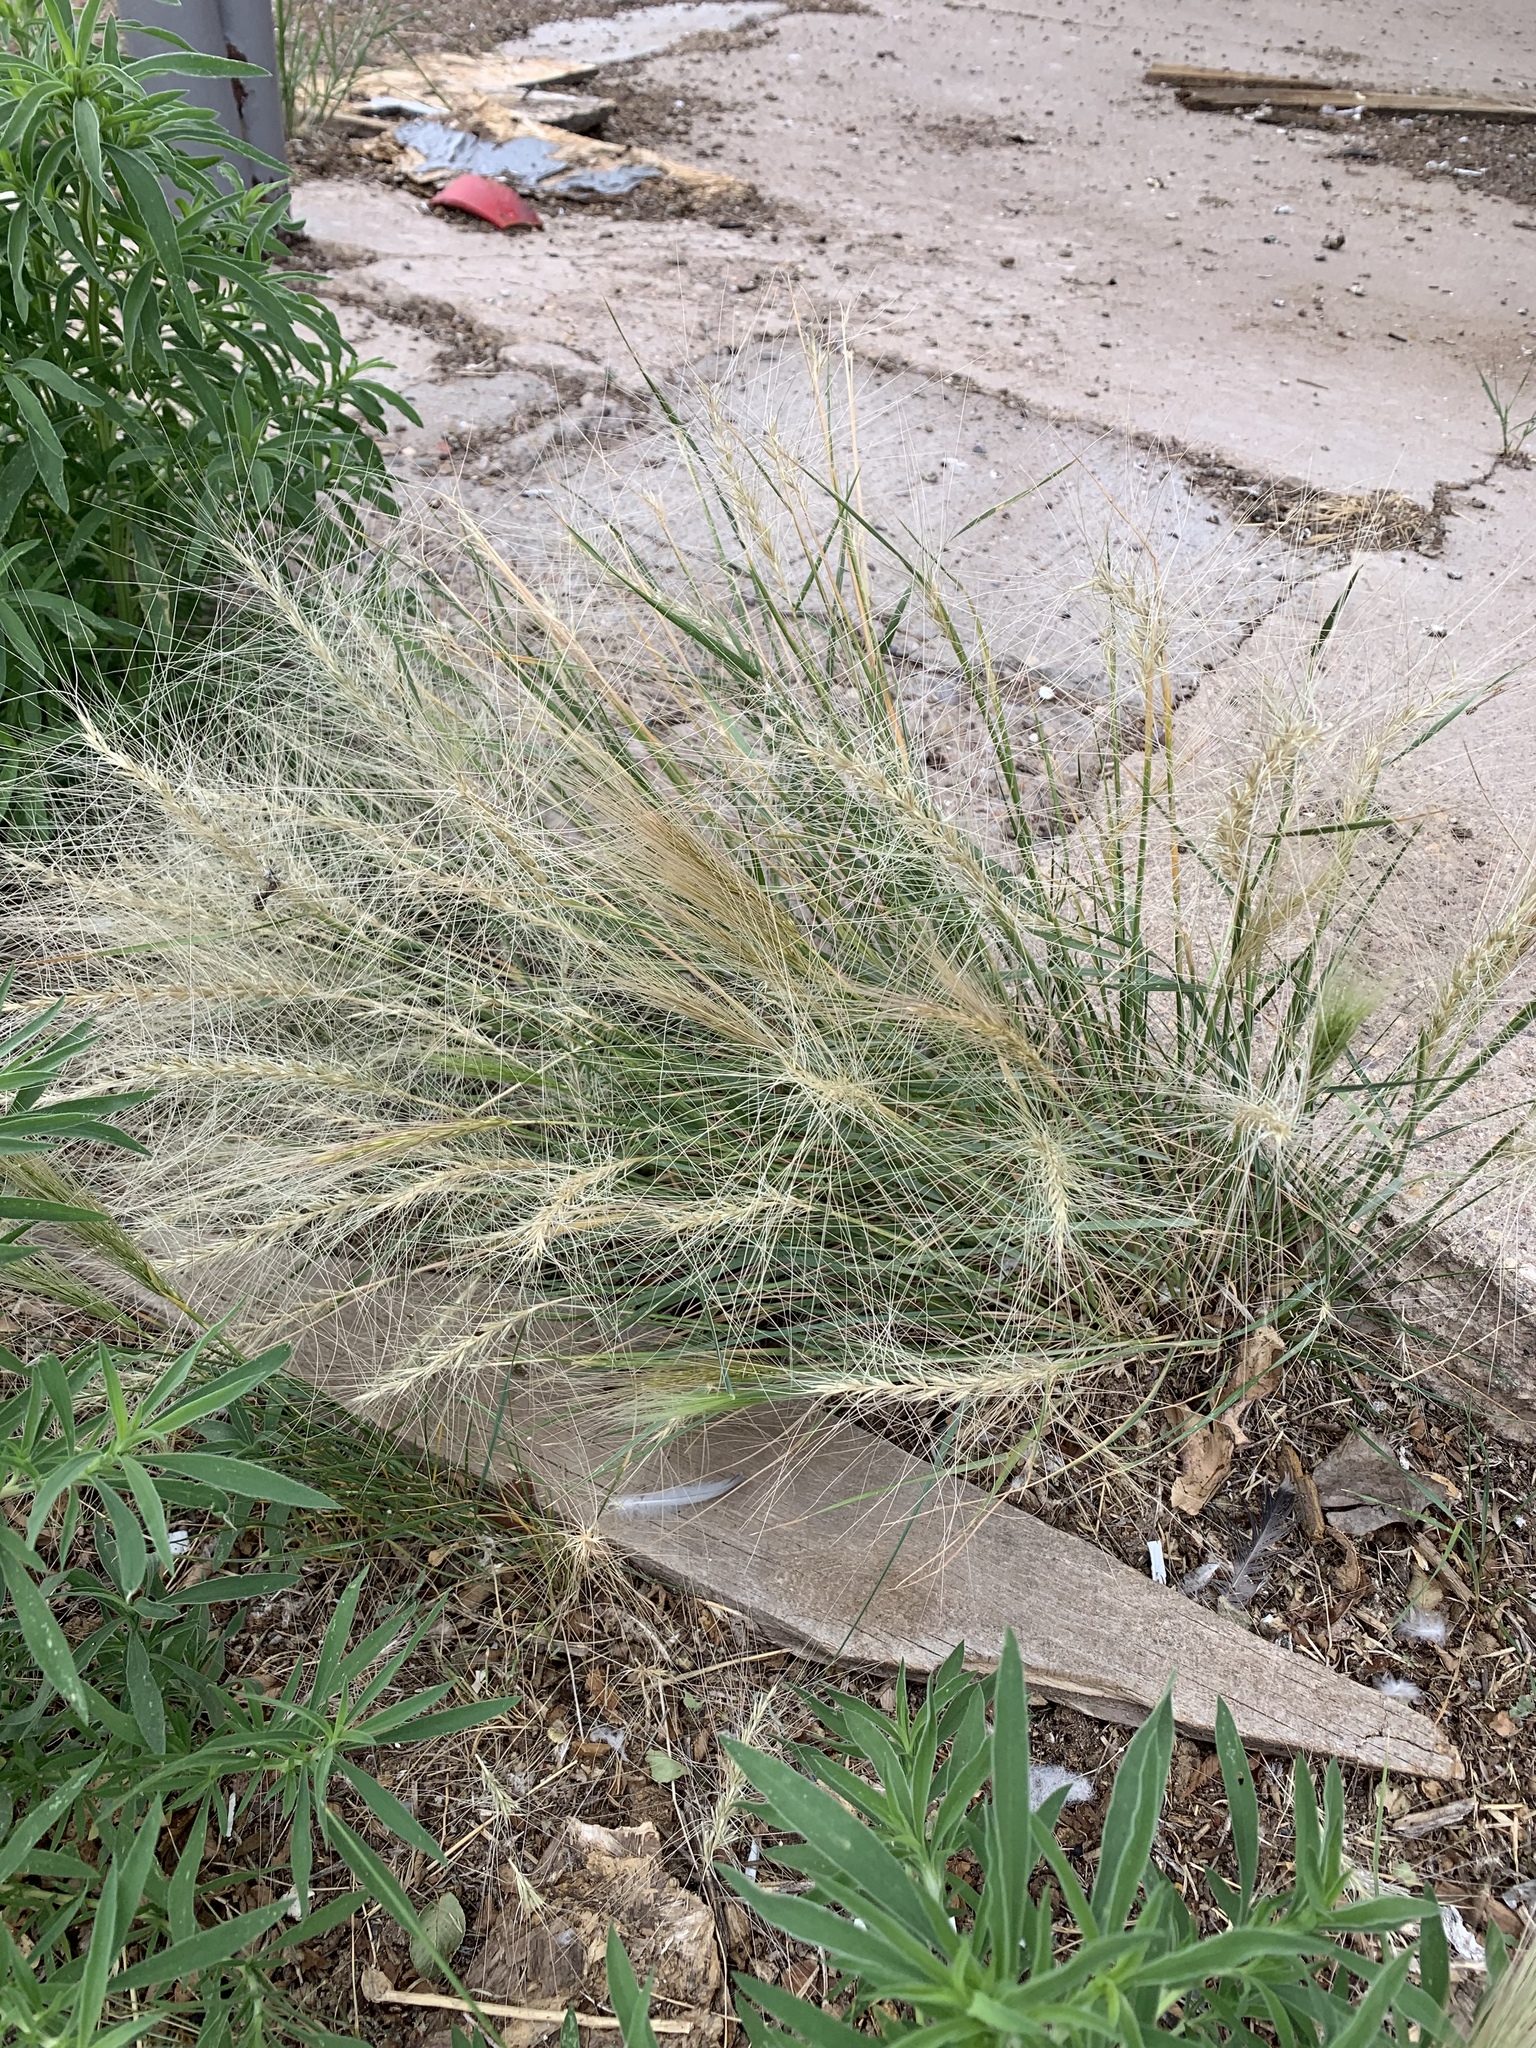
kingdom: Plantae
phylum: Tracheophyta
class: Liliopsida
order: Poales
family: Poaceae
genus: Elymus
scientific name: Elymus elymoides
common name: Bottlebrush squirreltail
